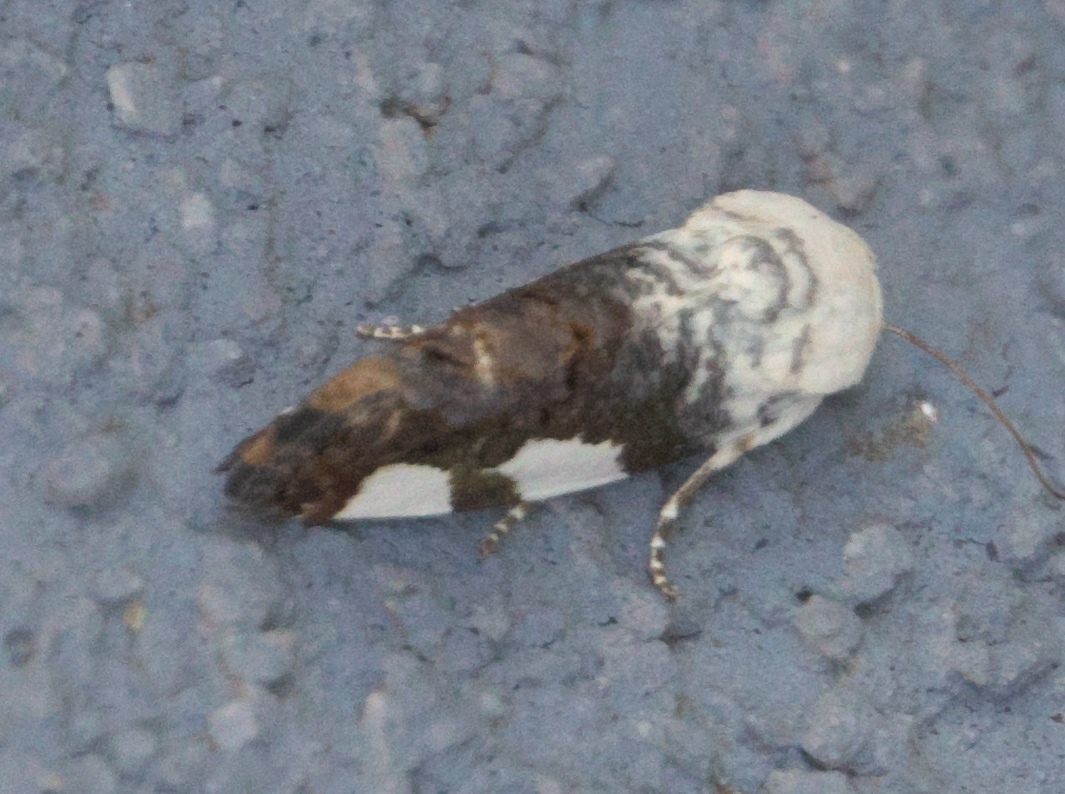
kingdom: Animalia
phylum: Arthropoda
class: Insecta
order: Lepidoptera
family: Noctuidae
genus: Acontia
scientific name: Acontia quadriplaga
